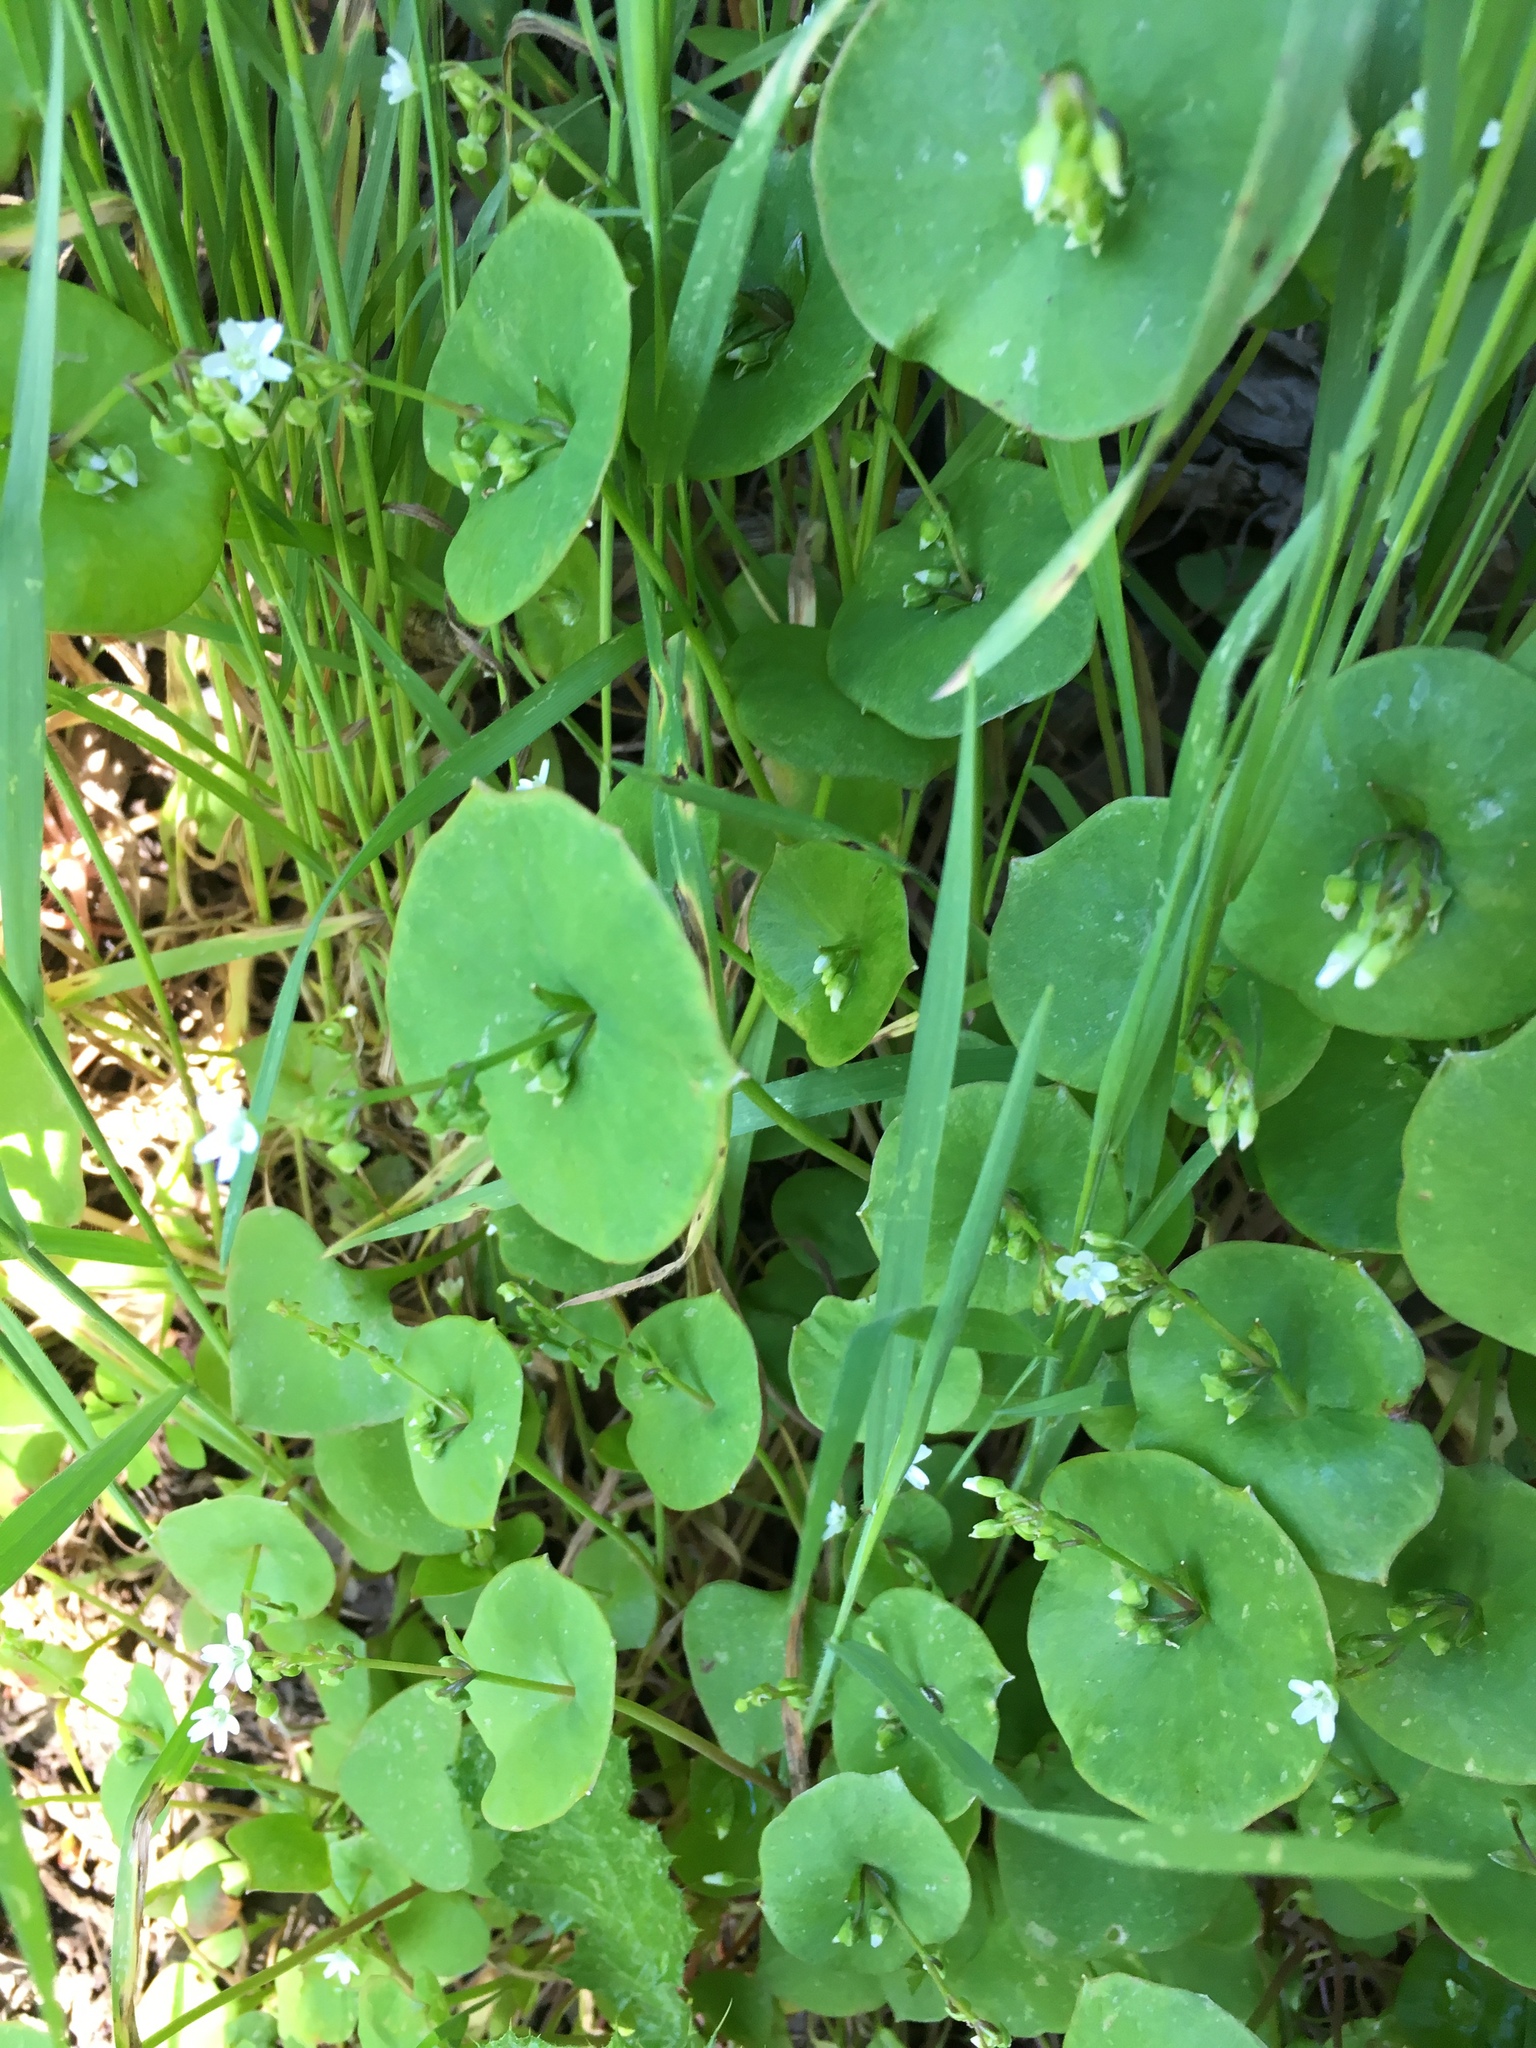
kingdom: Plantae
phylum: Tracheophyta
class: Magnoliopsida
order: Caryophyllales
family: Montiaceae
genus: Claytonia
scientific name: Claytonia perfoliata
